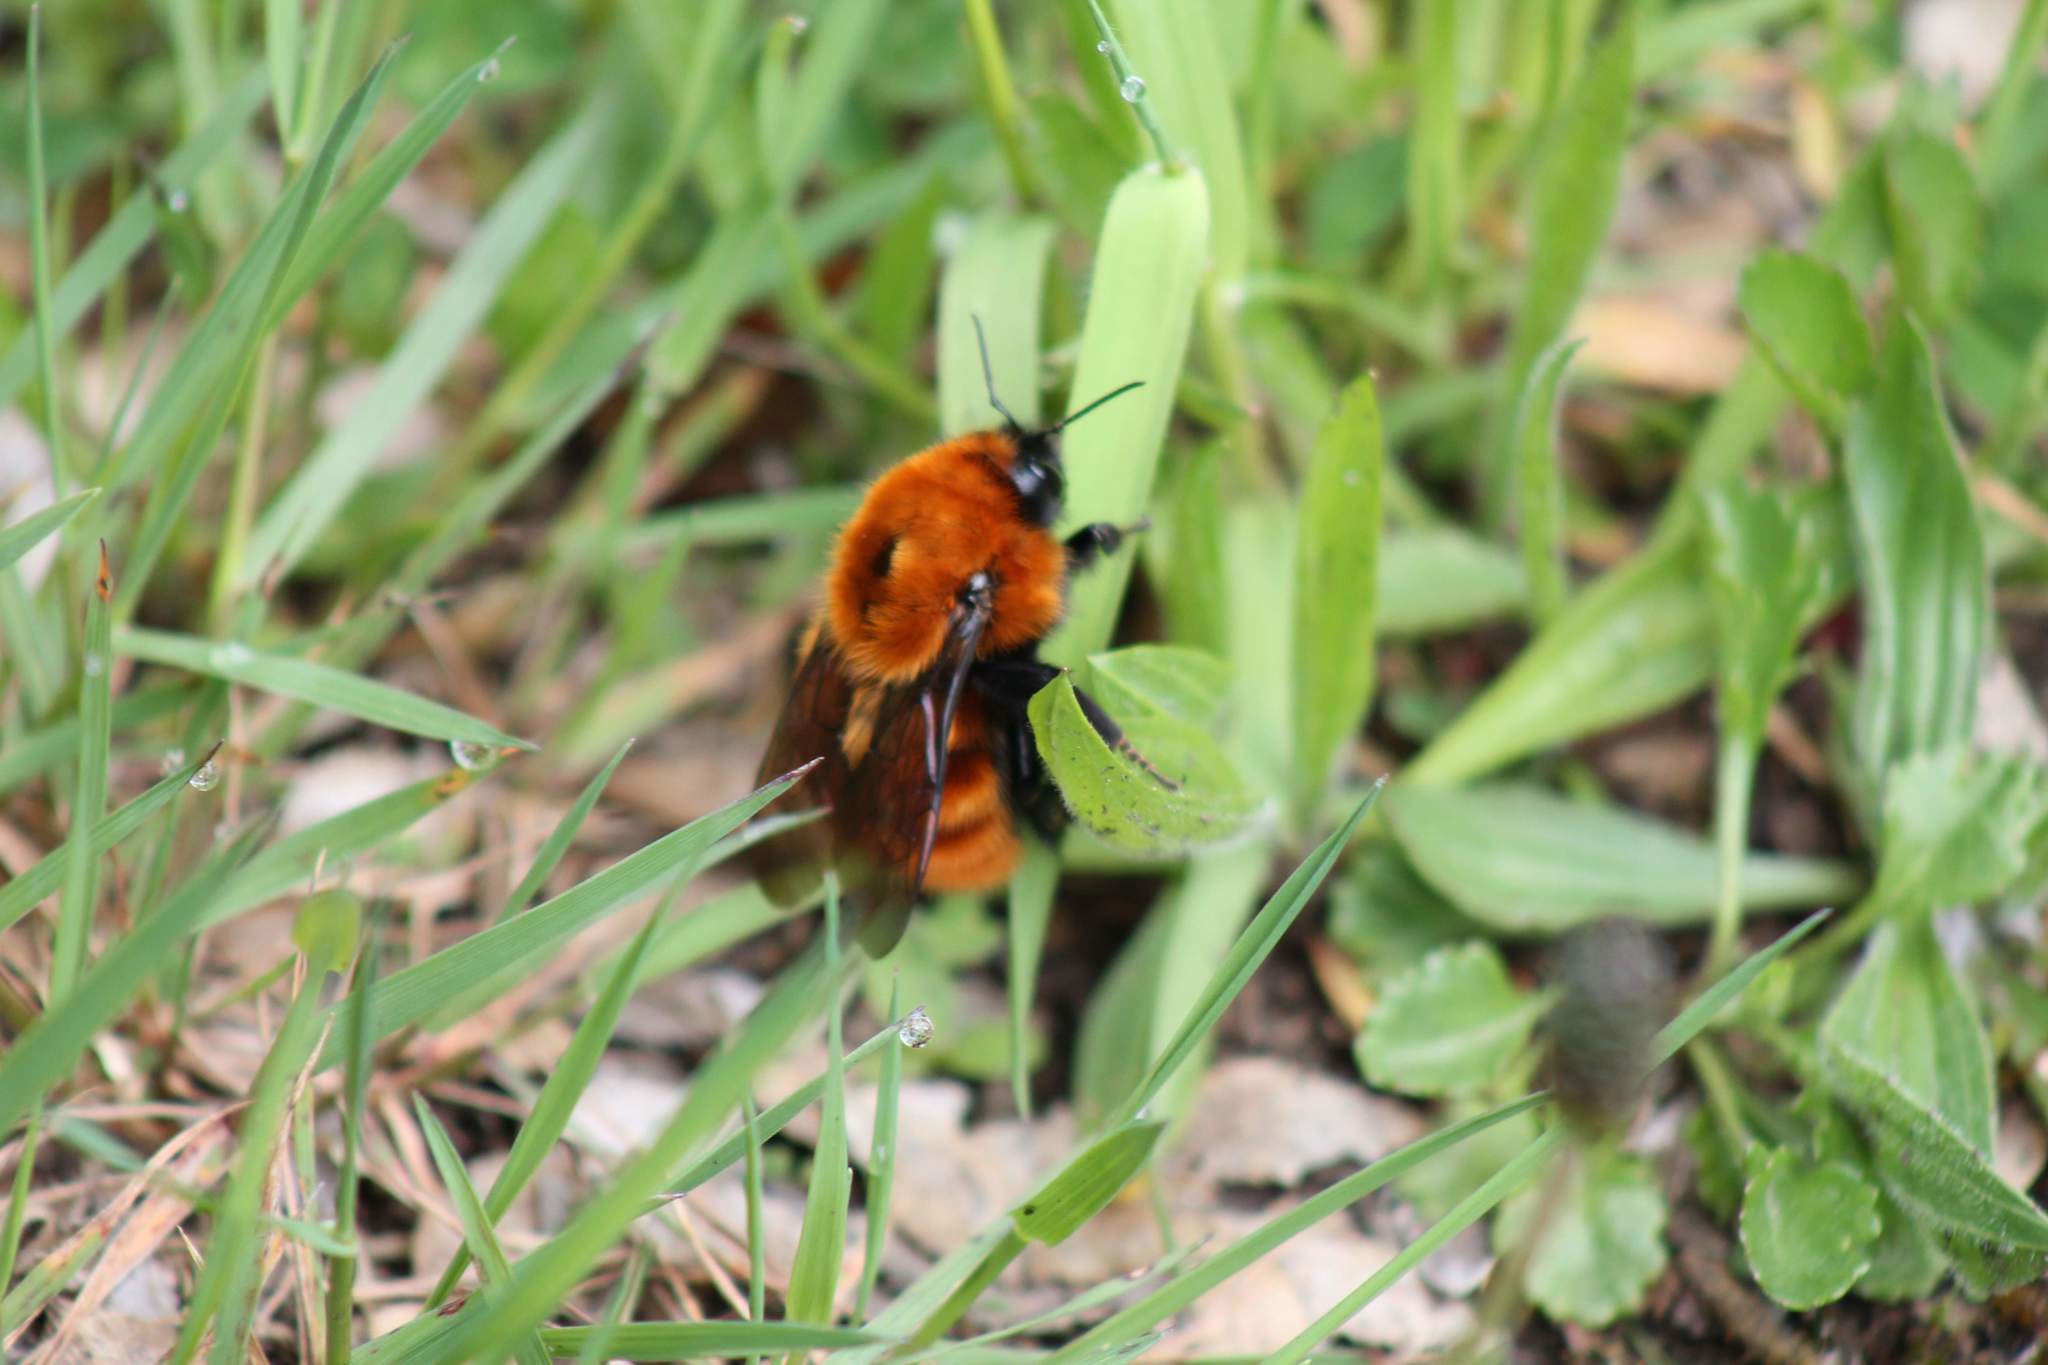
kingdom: Animalia
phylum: Arthropoda
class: Insecta
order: Hymenoptera
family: Apidae
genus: Bombus
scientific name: Bombus dahlbomii
